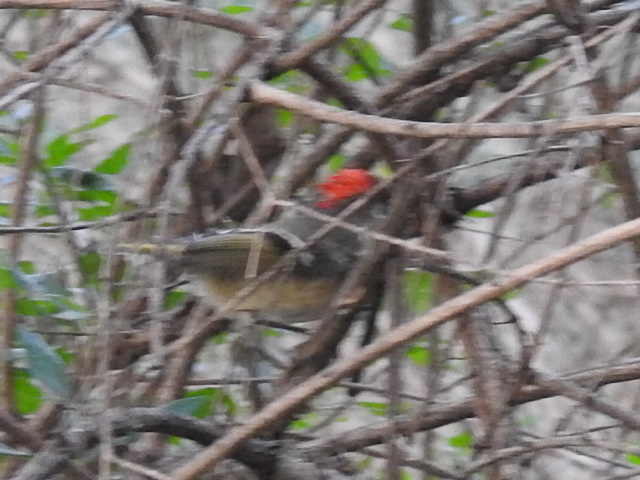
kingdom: Animalia
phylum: Chordata
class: Aves
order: Passeriformes
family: Regulidae
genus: Regulus
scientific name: Regulus calendula
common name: Ruby-crowned kinglet
